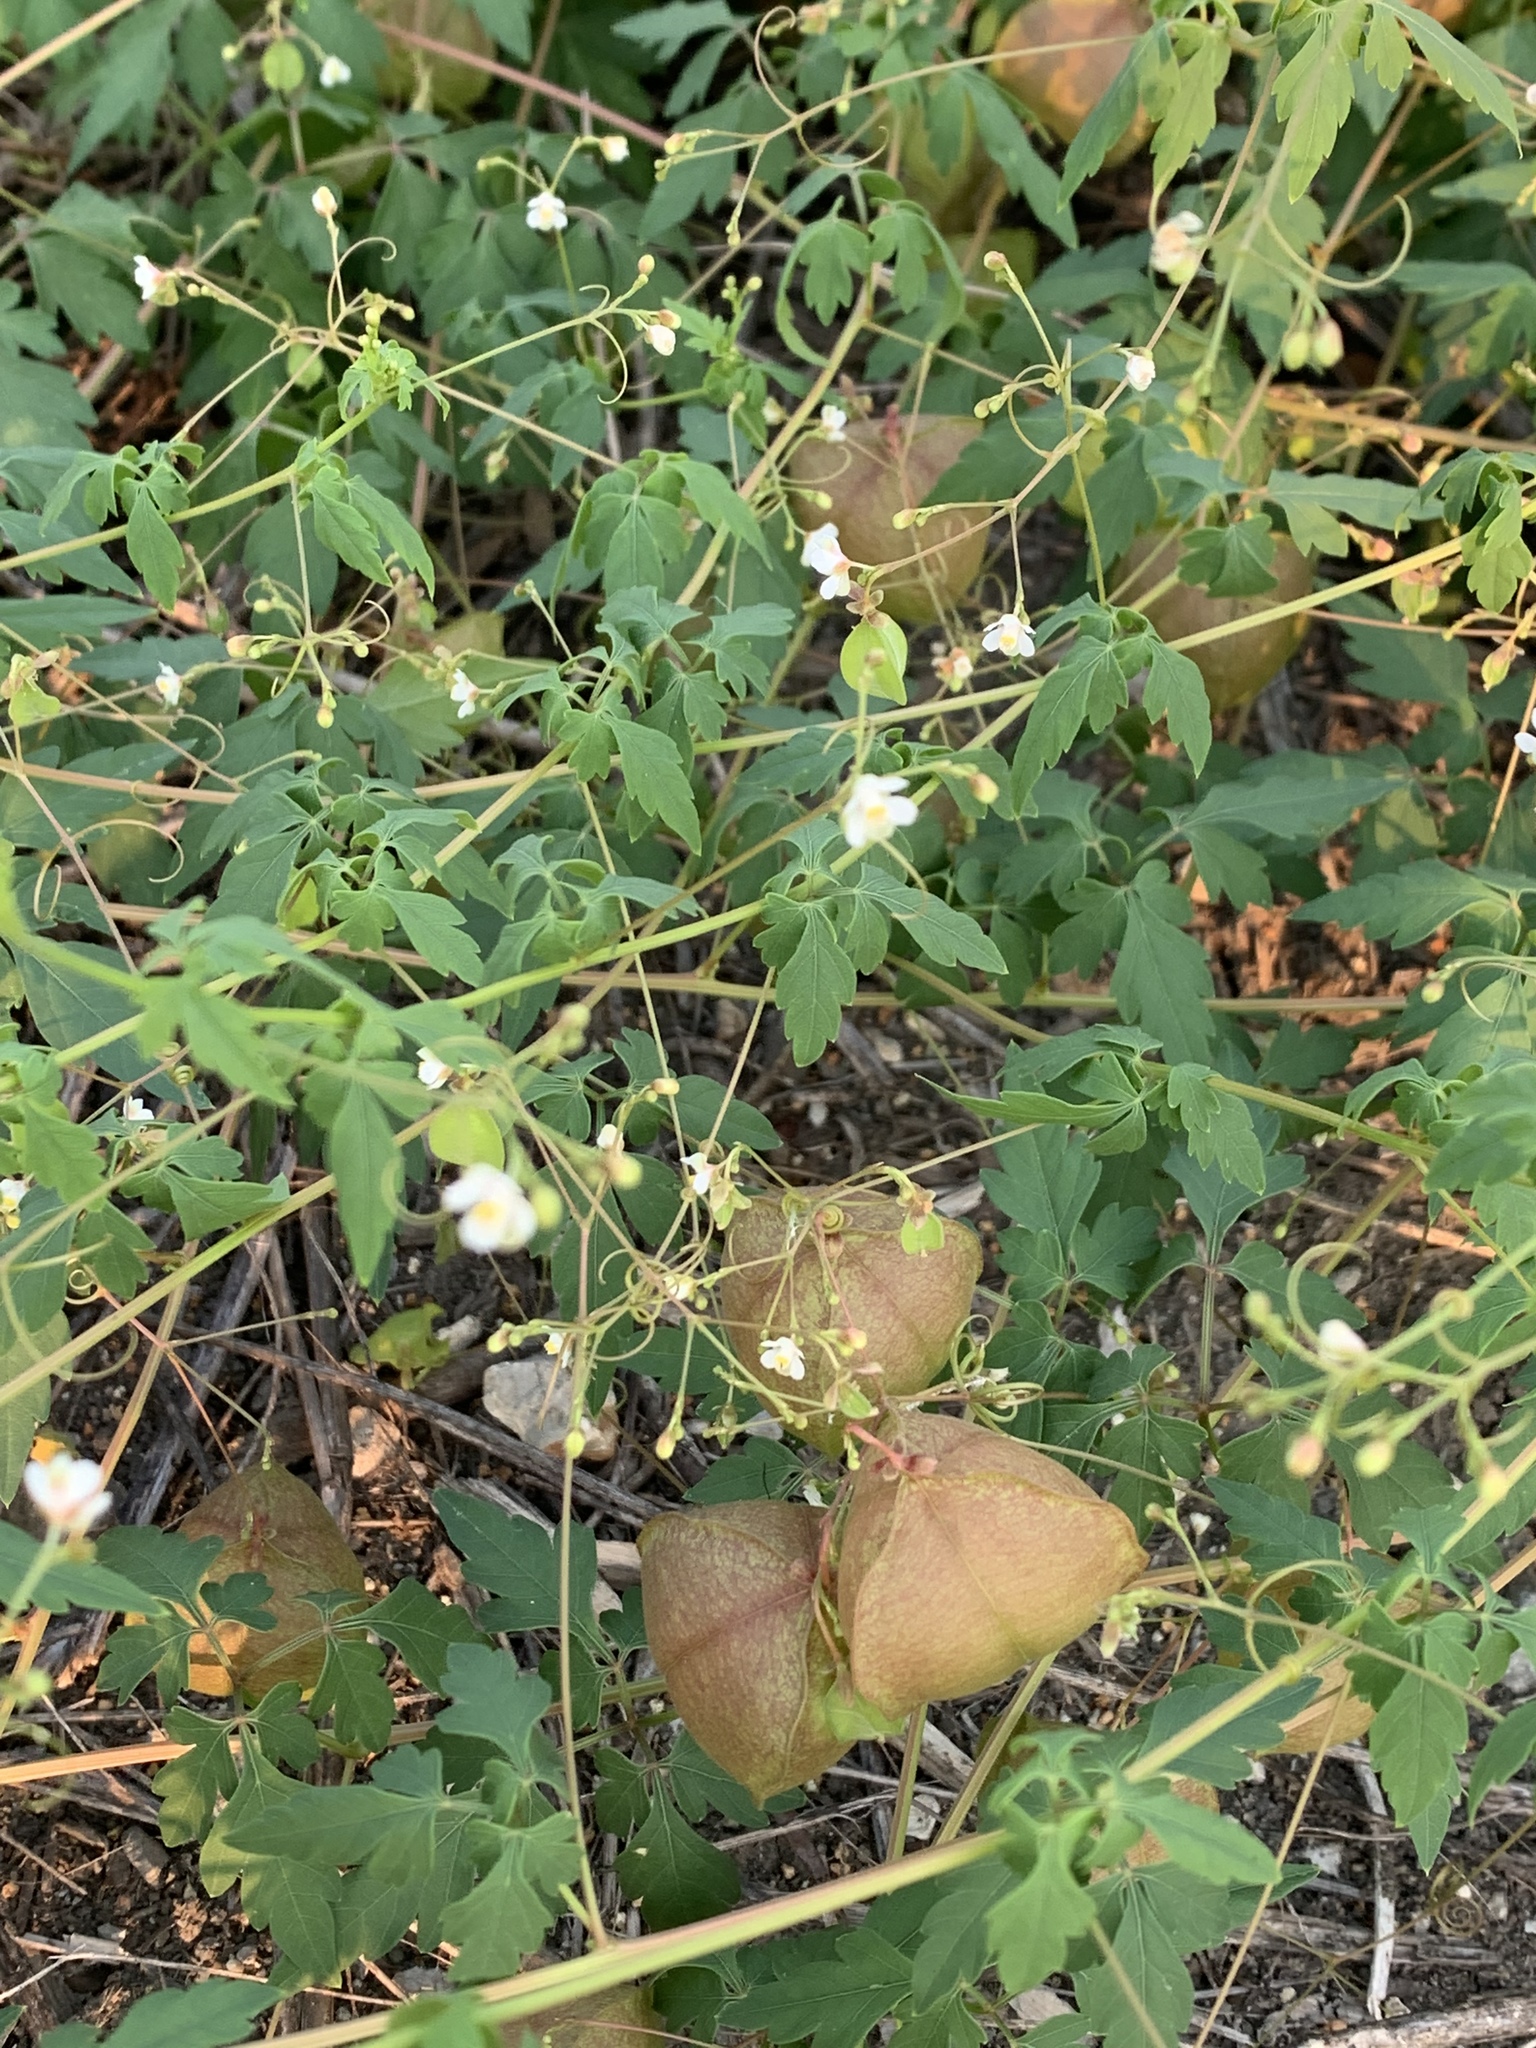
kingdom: Plantae
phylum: Tracheophyta
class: Magnoliopsida
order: Sapindales
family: Sapindaceae
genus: Cardiospermum
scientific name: Cardiospermum halicacabum
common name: Balloon vine
